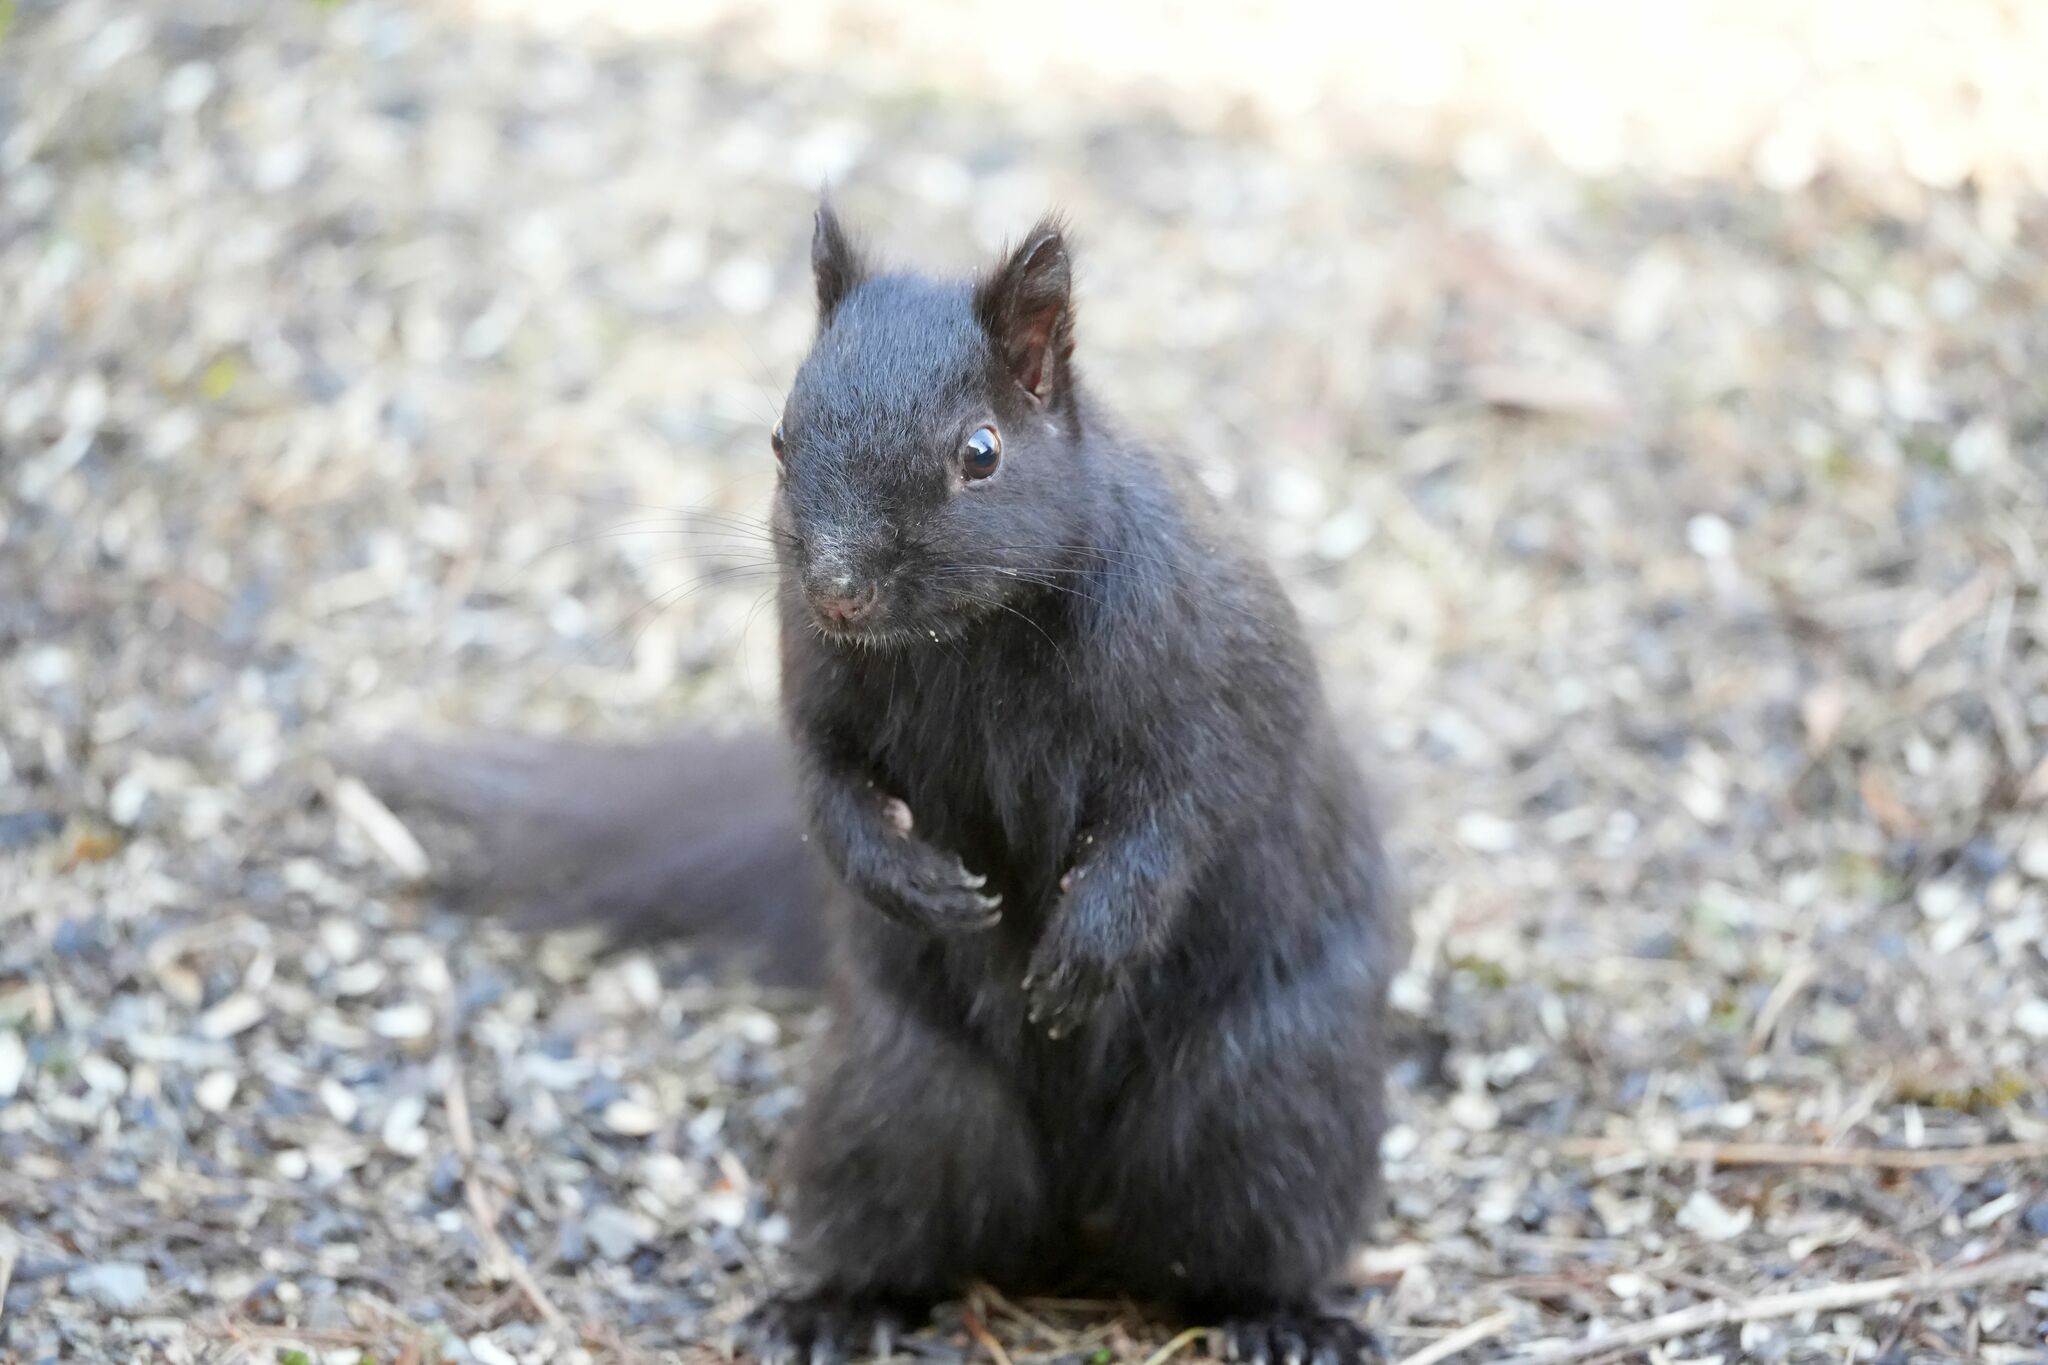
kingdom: Animalia
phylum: Chordata
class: Mammalia
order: Rodentia
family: Sciuridae
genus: Sciurus
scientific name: Sciurus carolinensis
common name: Eastern gray squirrel
